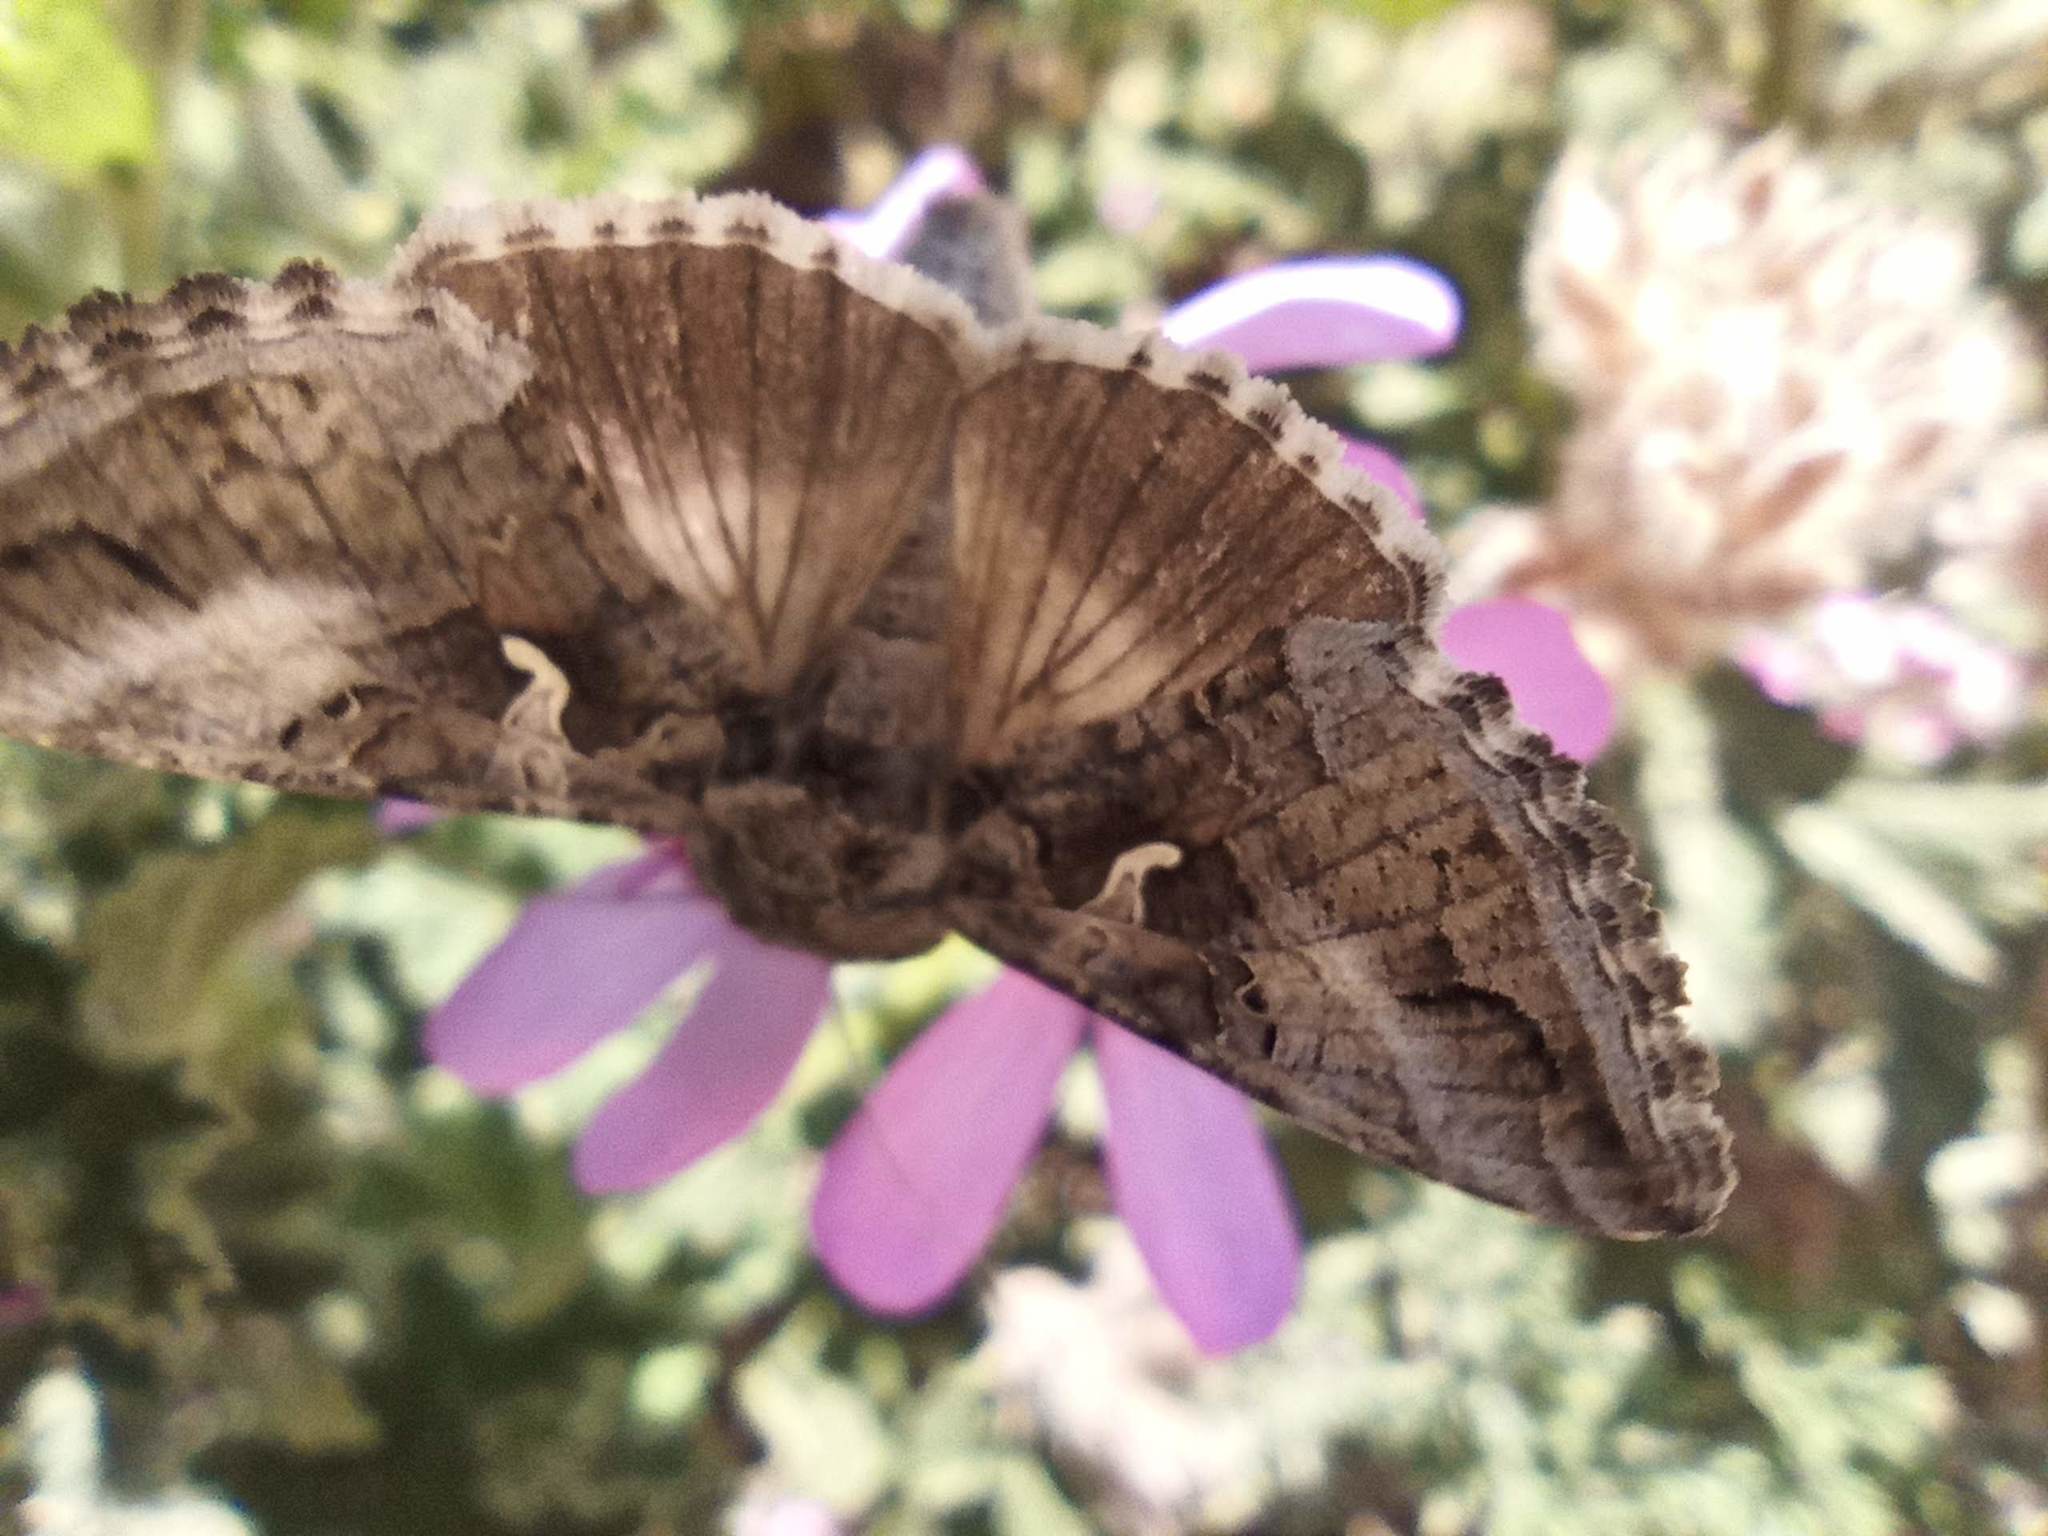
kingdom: Animalia
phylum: Arthropoda
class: Insecta
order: Lepidoptera
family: Noctuidae
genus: Autographa
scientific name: Autographa gamma
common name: Silver y
